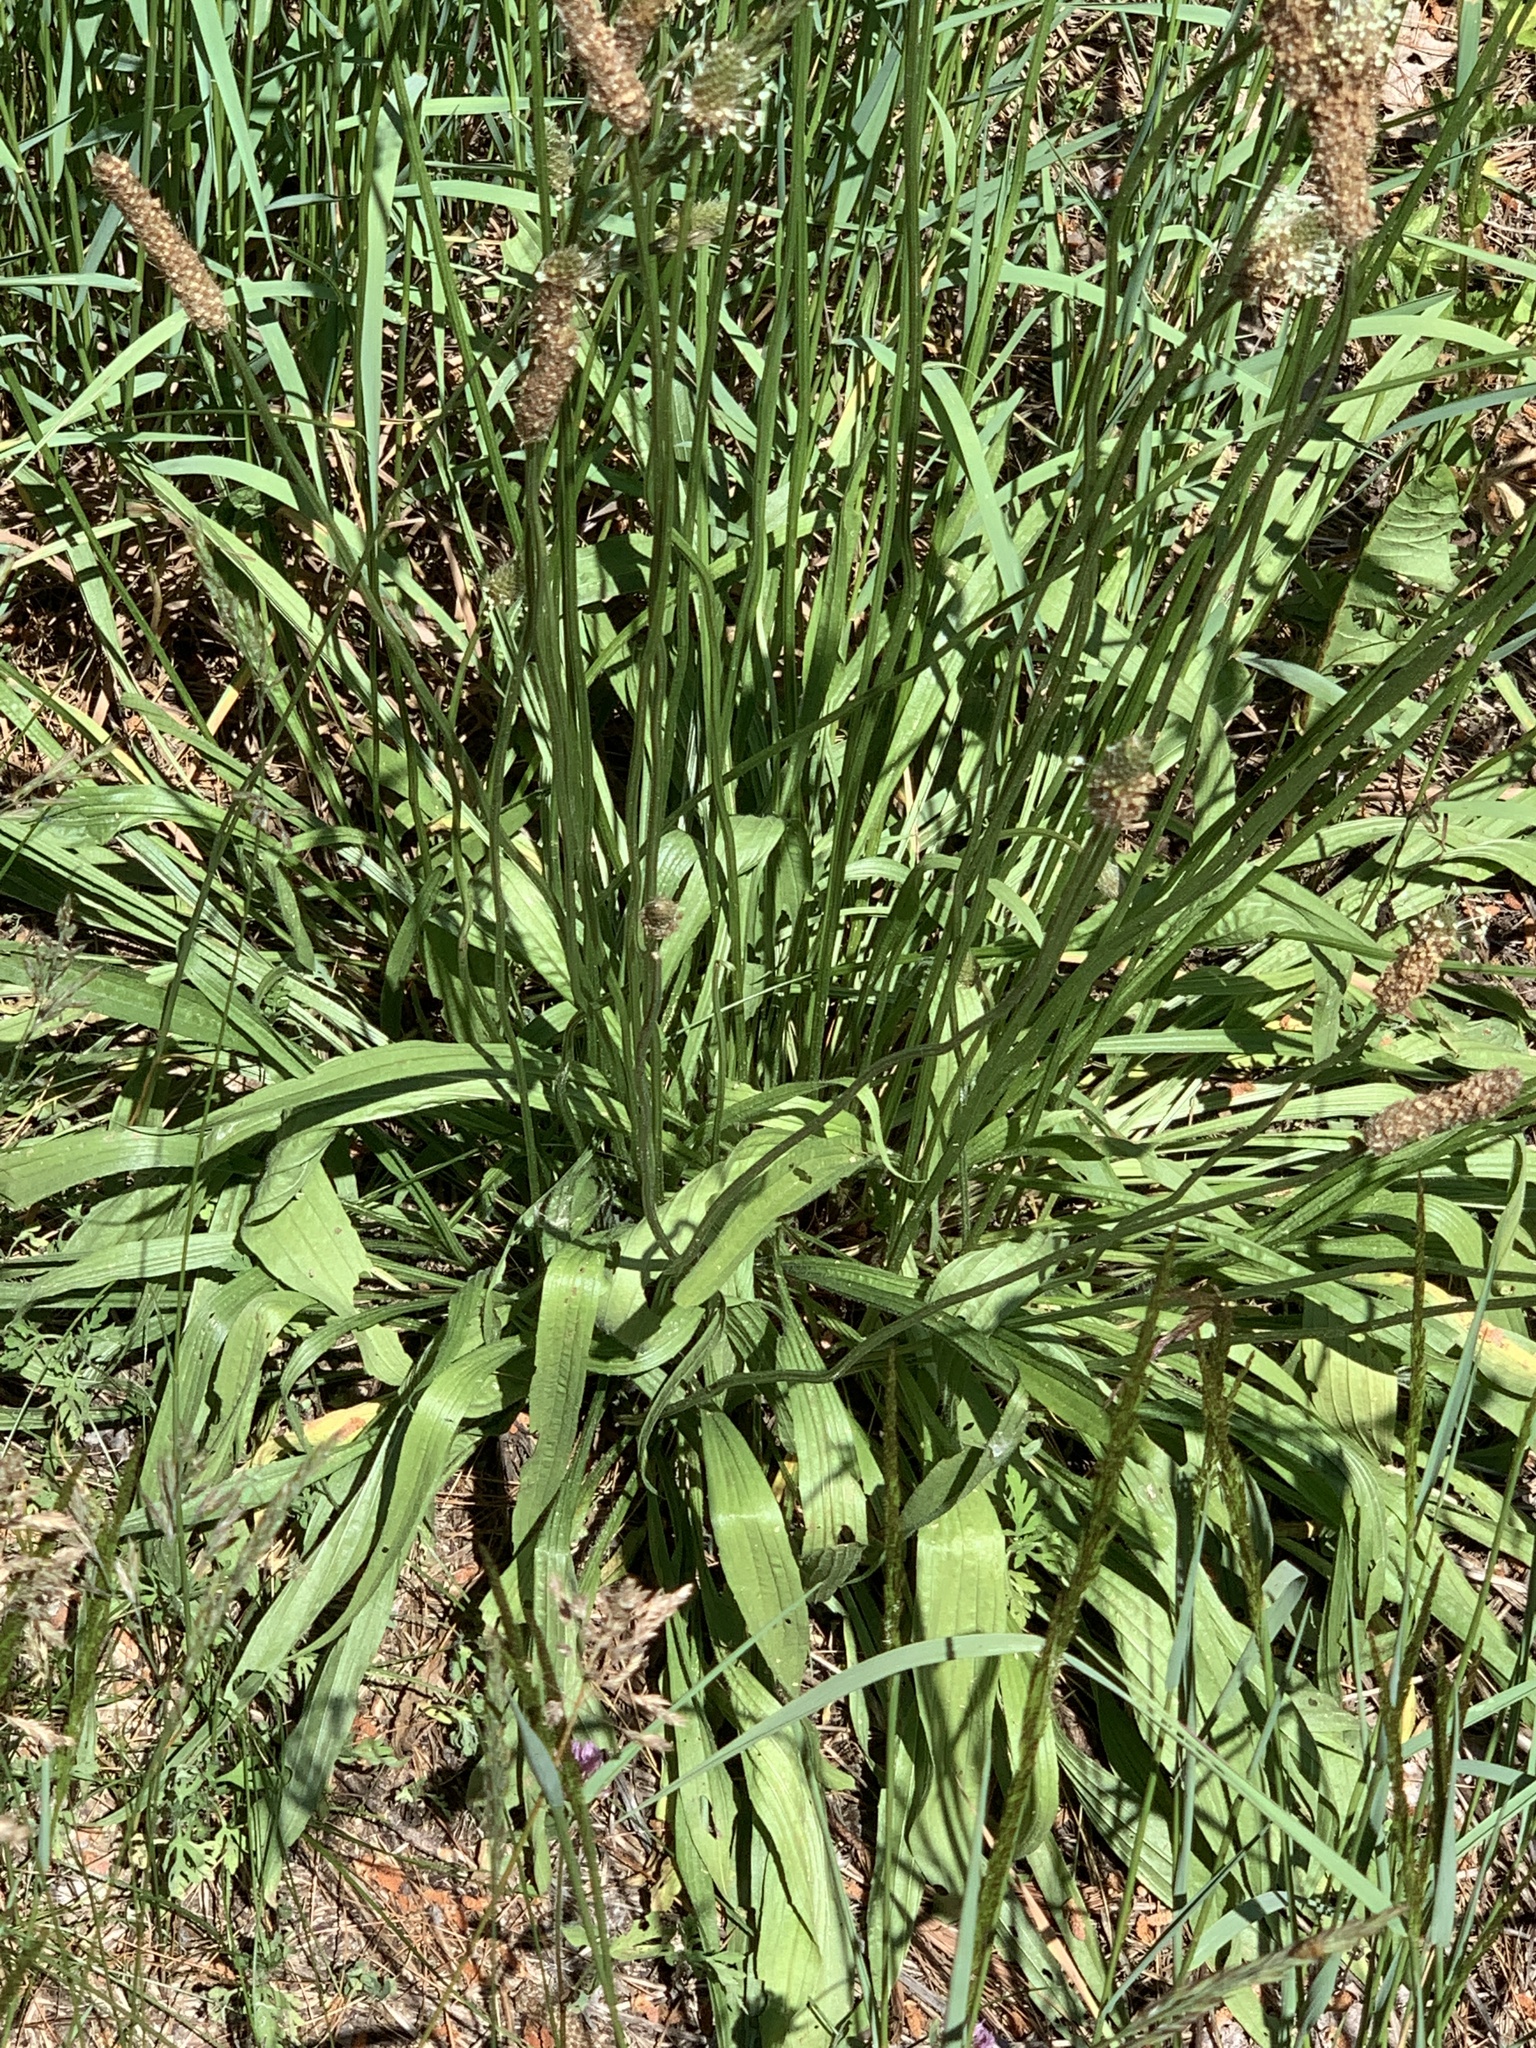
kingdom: Plantae
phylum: Tracheophyta
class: Magnoliopsida
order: Lamiales
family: Plantaginaceae
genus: Plantago
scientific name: Plantago lanceolata
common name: Ribwort plantain
